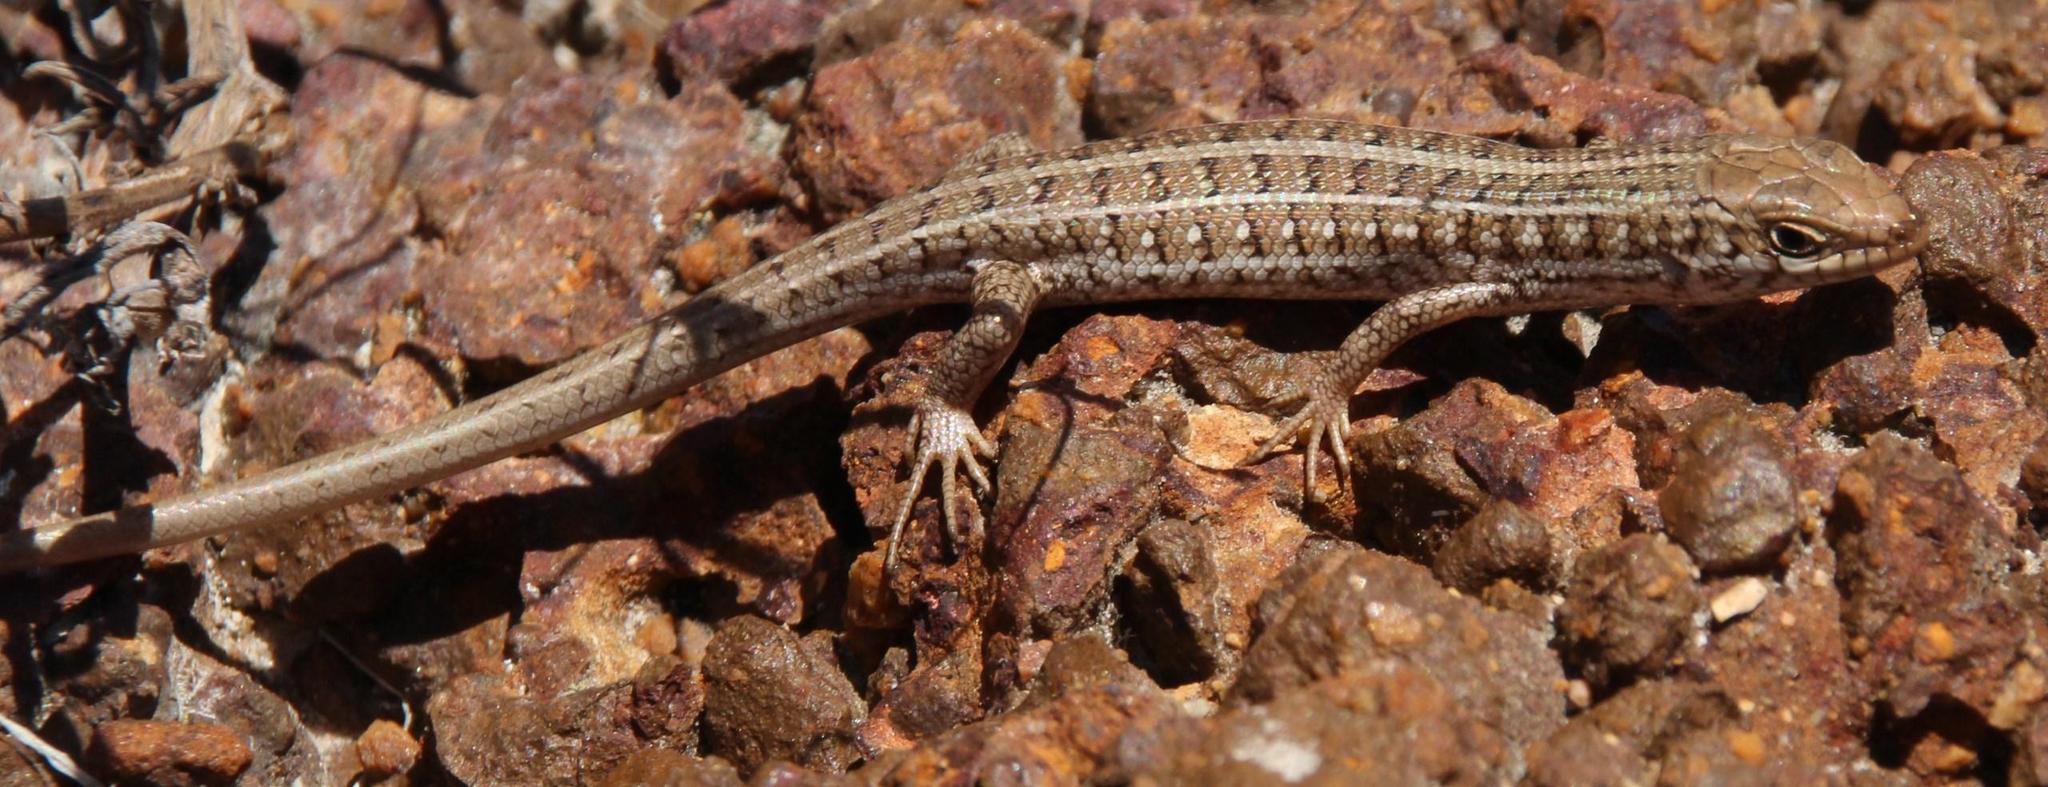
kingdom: Animalia
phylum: Chordata
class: Squamata
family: Scincidae
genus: Trachylepis
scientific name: Trachylepis capensis
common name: Cape skink
